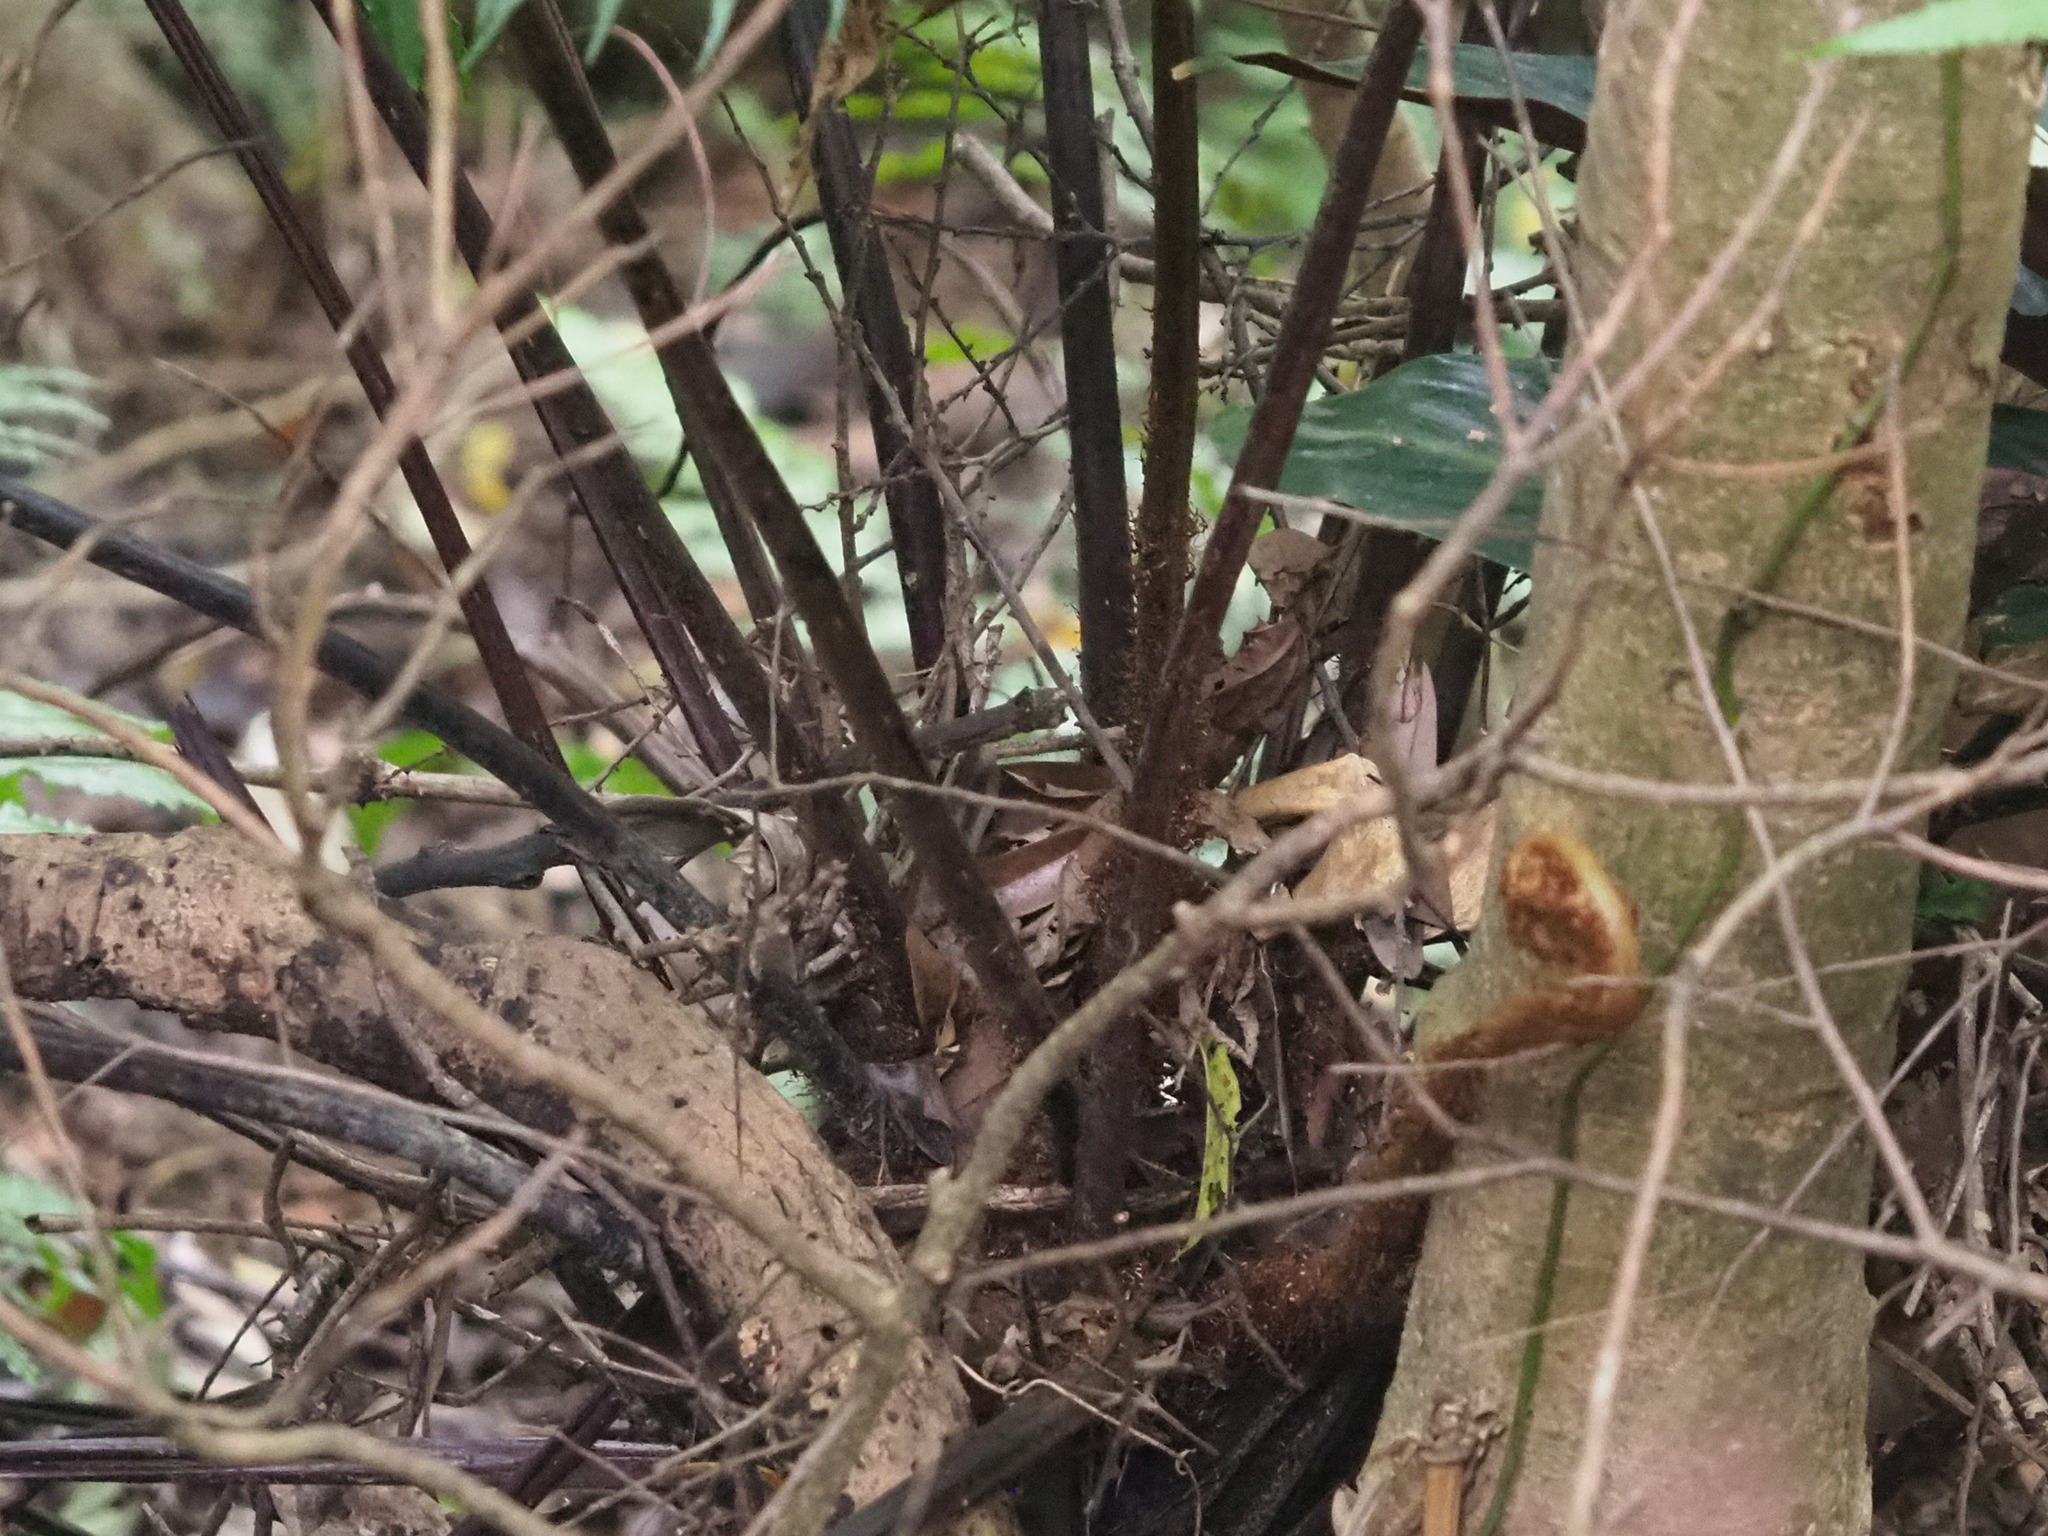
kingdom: Plantae
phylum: Tracheophyta
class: Polypodiopsida
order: Cyatheales
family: Cyatheaceae
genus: Gymnosphaera
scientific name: Gymnosphaera podophylla
